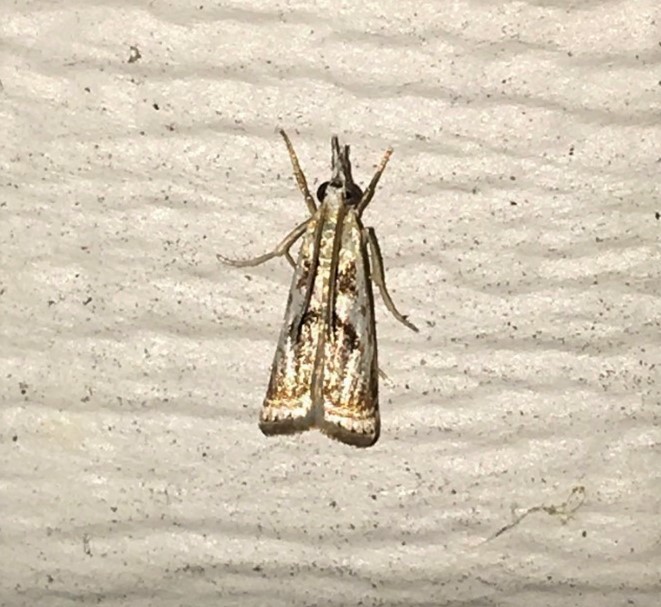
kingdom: Animalia
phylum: Arthropoda
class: Insecta
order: Lepidoptera
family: Crambidae
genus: Microcrambus
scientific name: Microcrambus elegans
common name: Elegant grass-veneer
